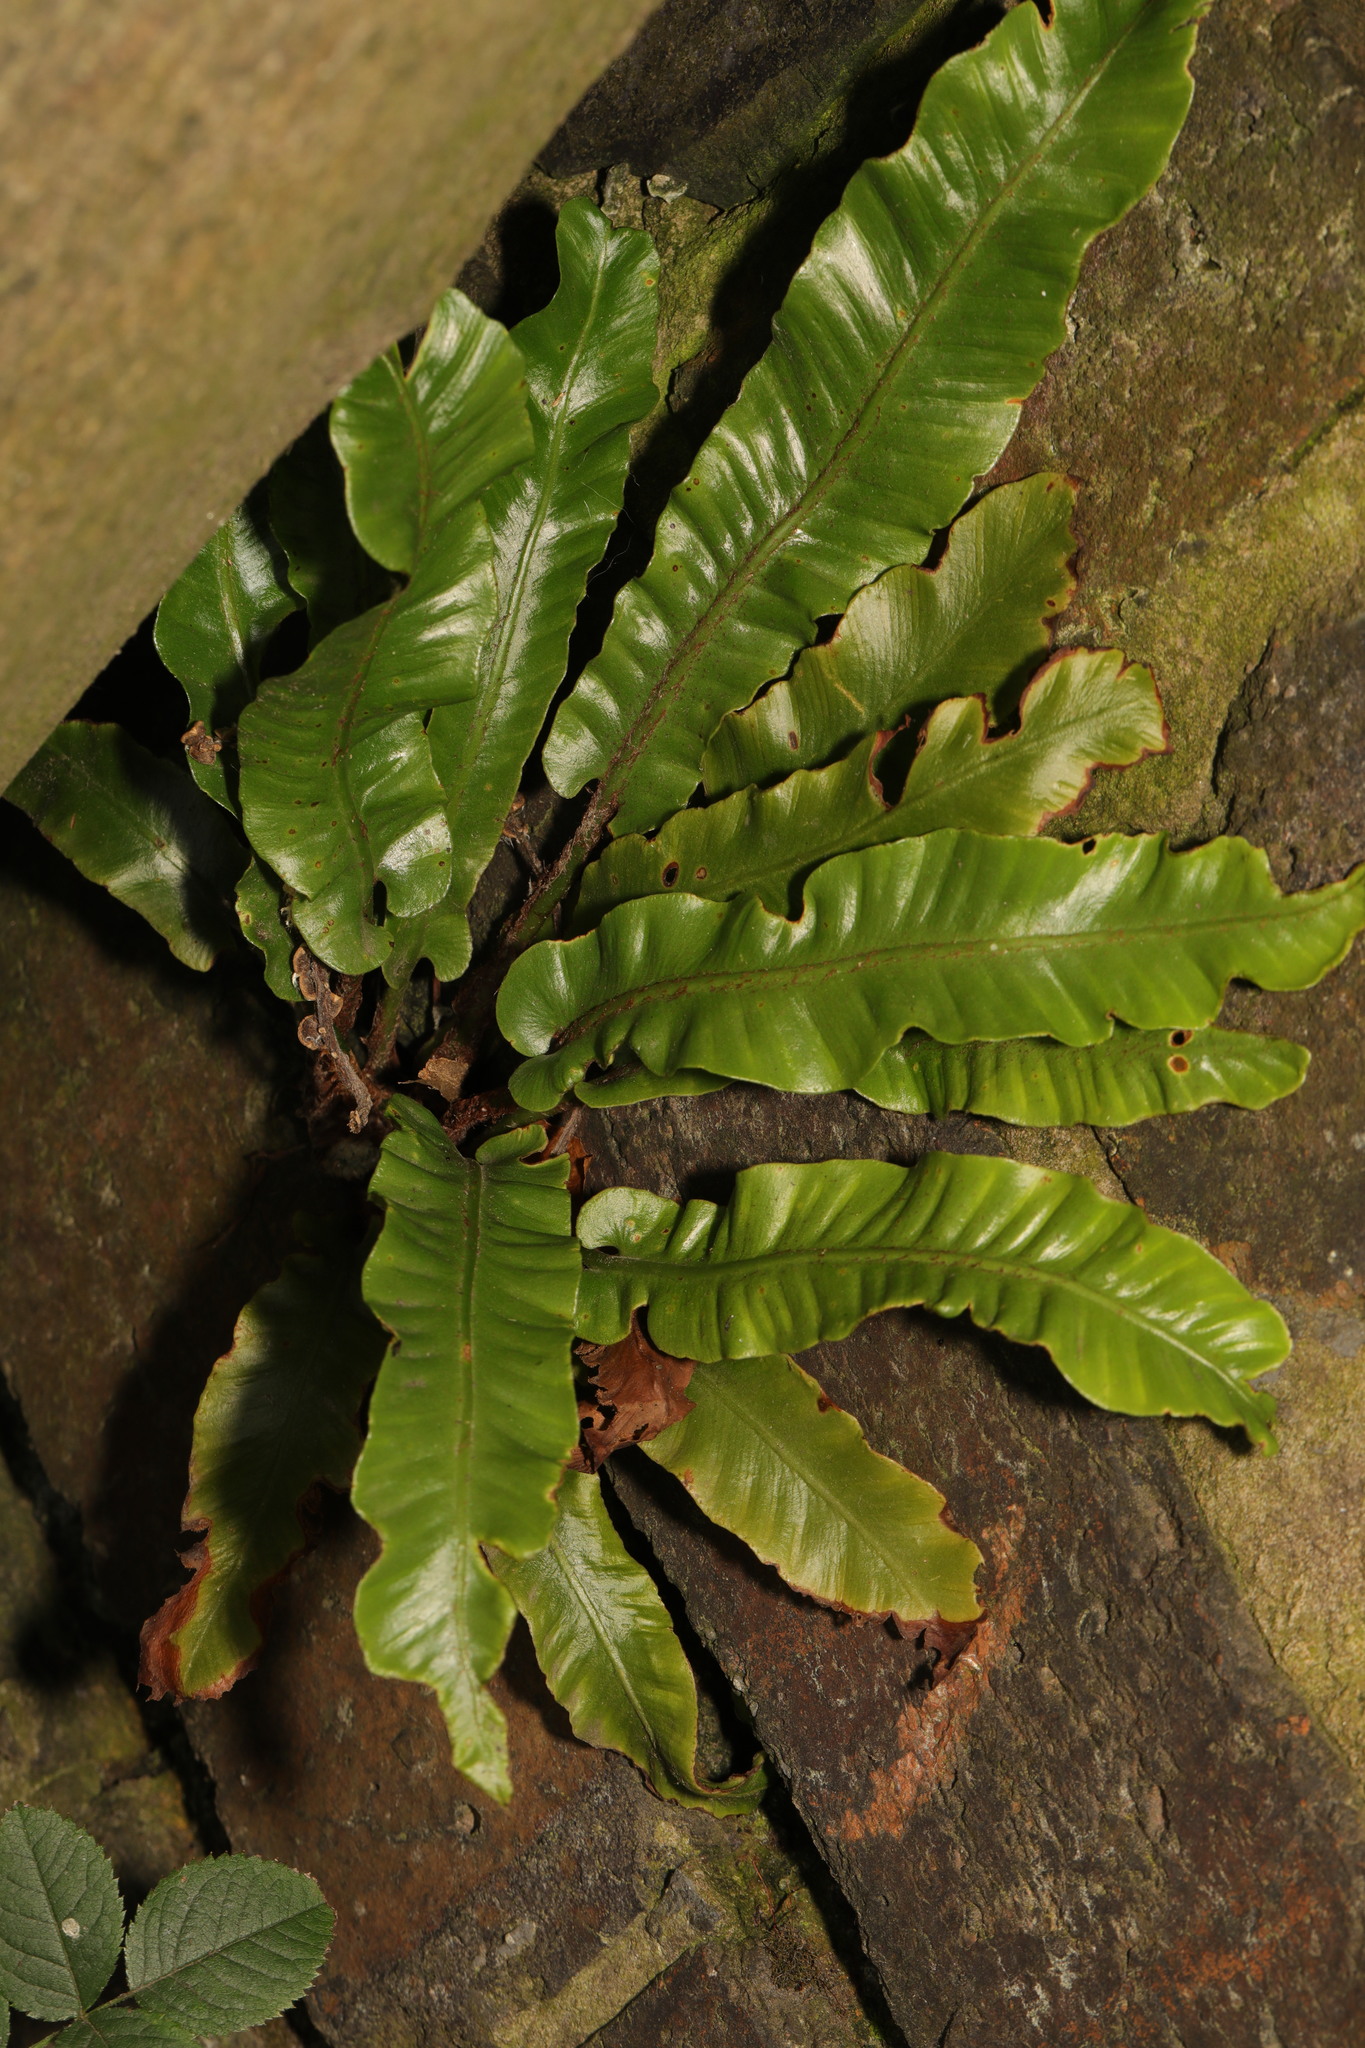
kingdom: Plantae
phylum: Tracheophyta
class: Polypodiopsida
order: Polypodiales
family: Aspleniaceae
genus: Asplenium
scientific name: Asplenium scolopendrium
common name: Hart's-tongue fern
